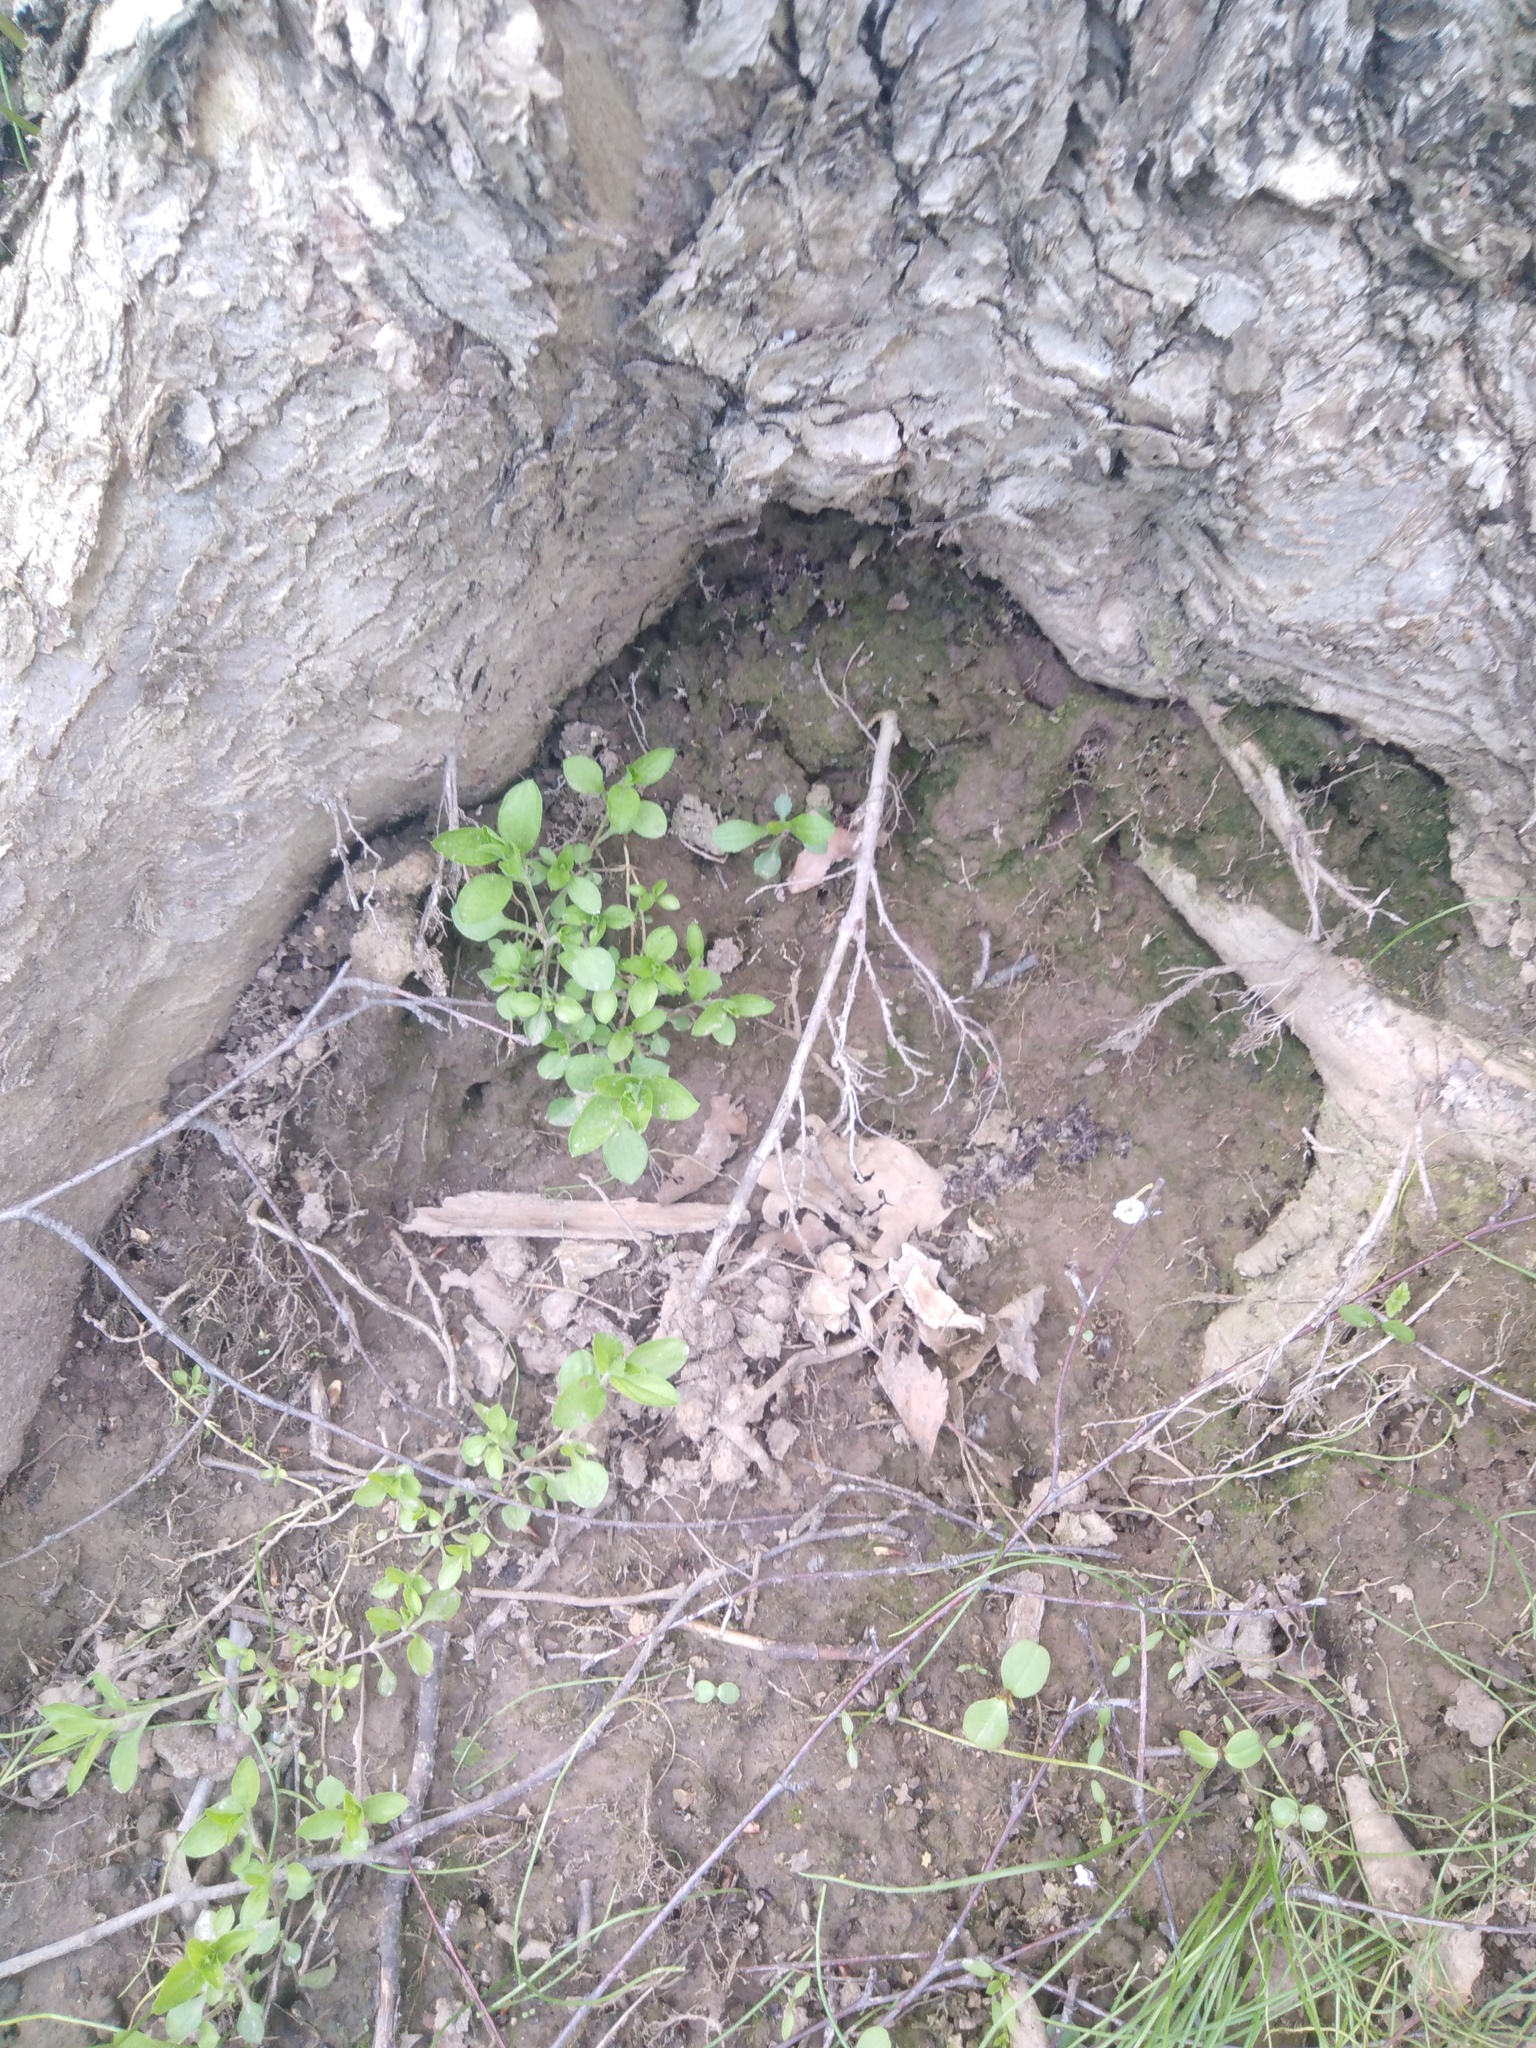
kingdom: Plantae
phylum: Tracheophyta
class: Magnoliopsida
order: Caryophyllales
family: Caryophyllaceae
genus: Moehringia
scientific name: Moehringia trinervia
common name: Three-nerved sandwort
